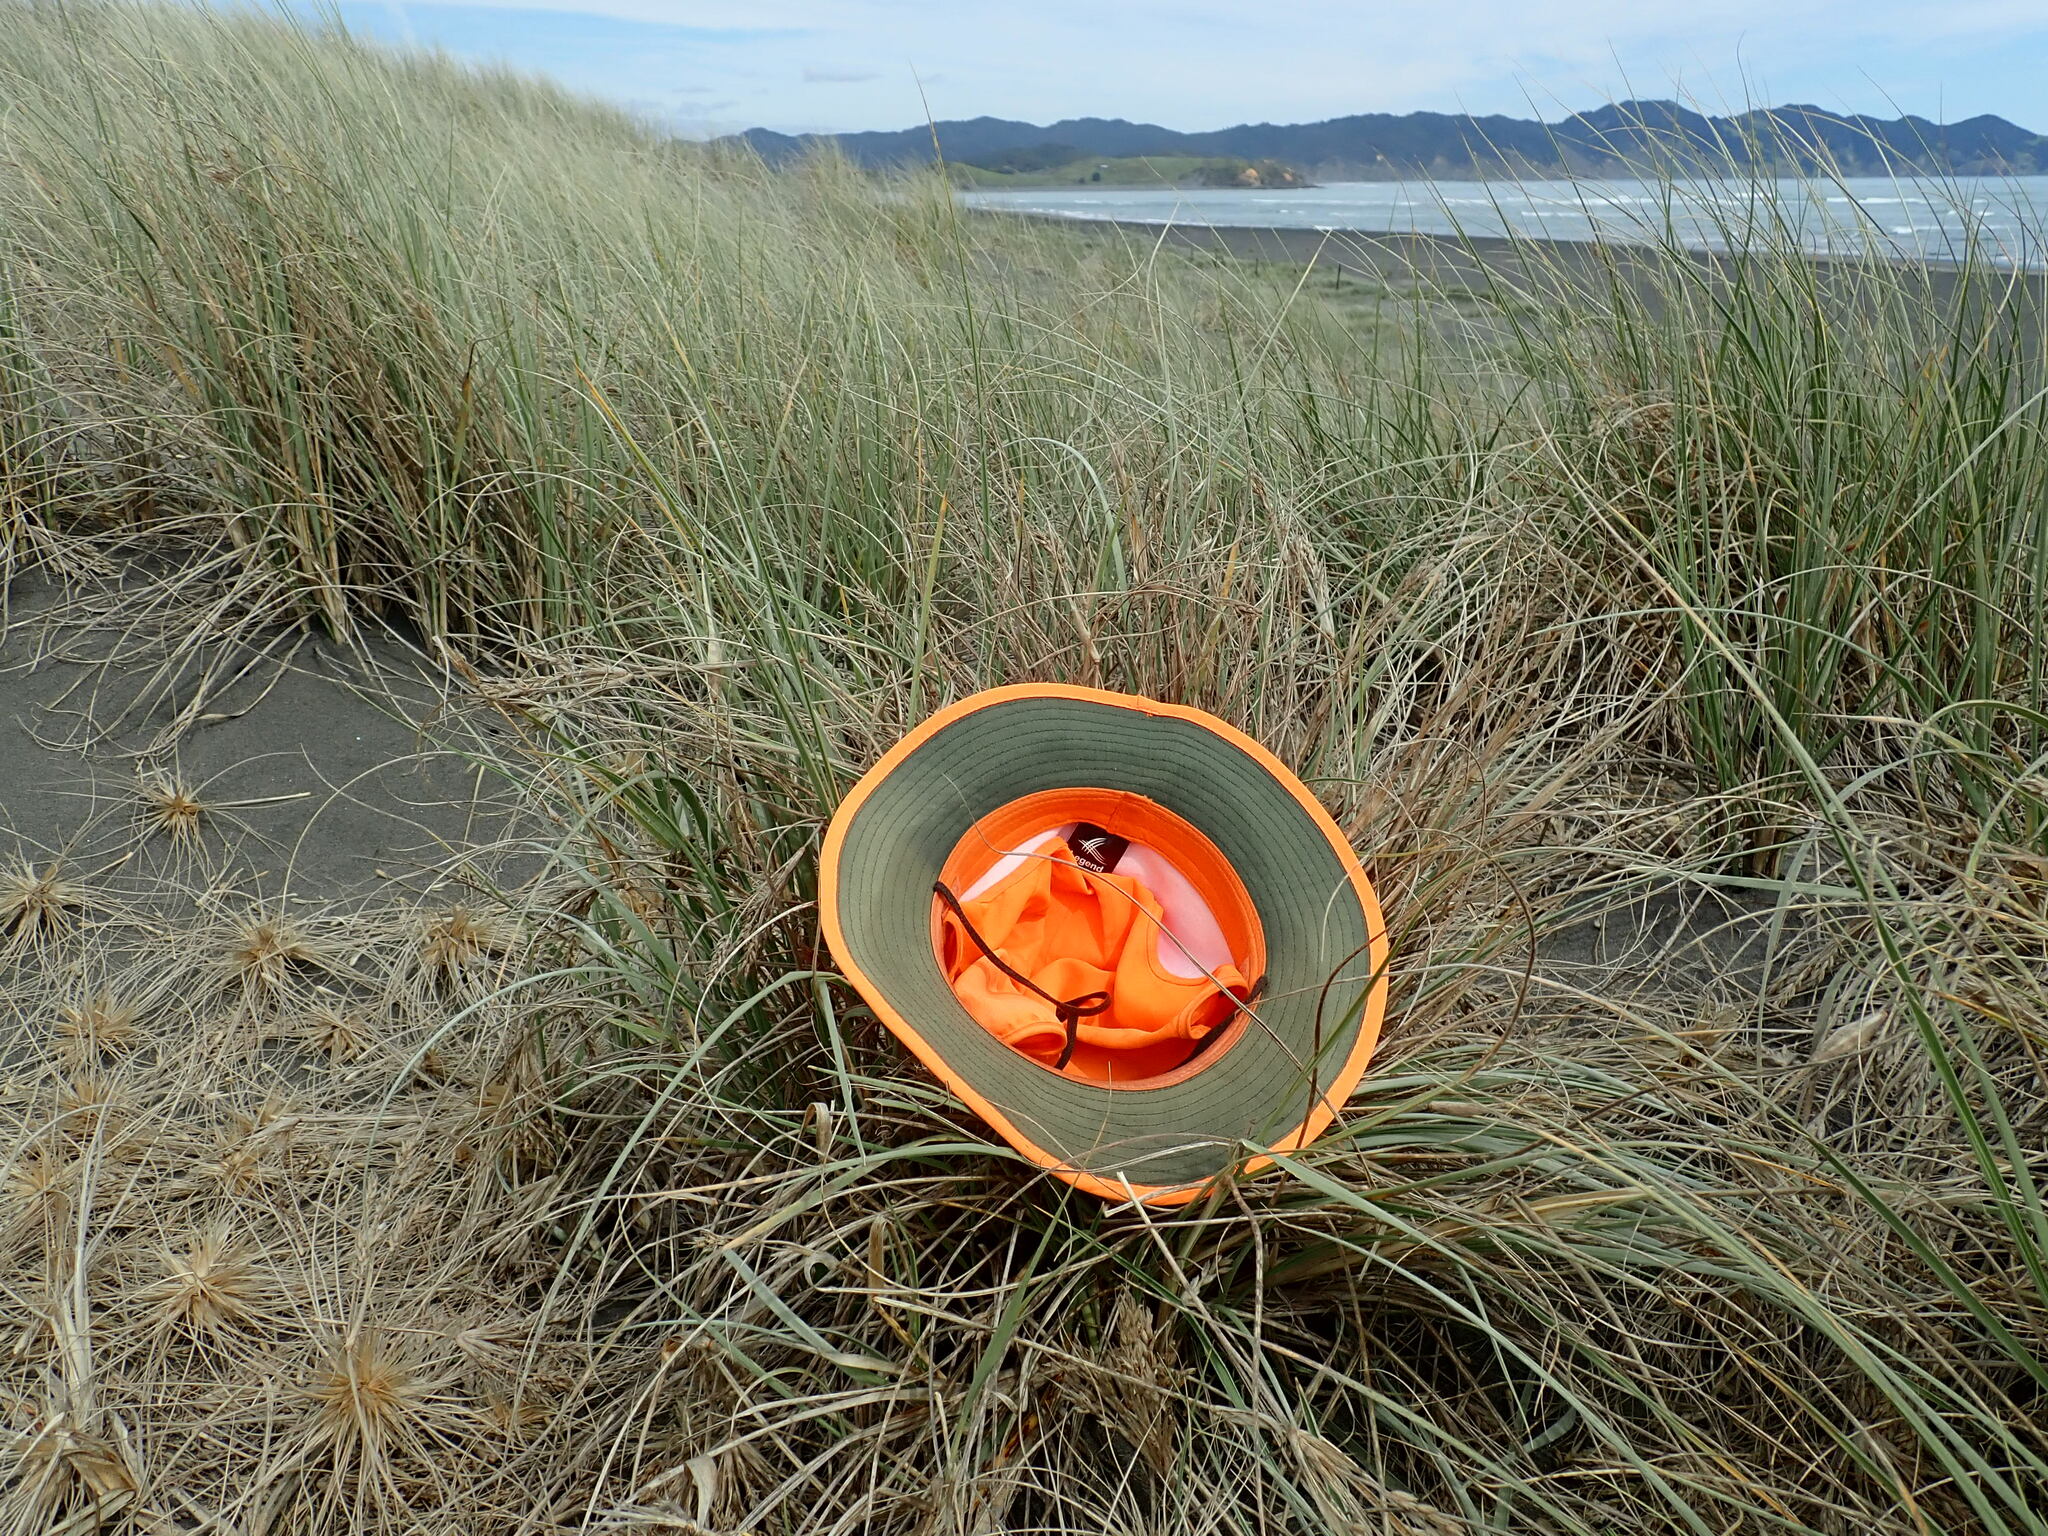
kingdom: Animalia
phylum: Arthropoda
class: Arachnida
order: Araneae
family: Theridiidae
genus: Latrodectus
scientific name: Latrodectus katipo
